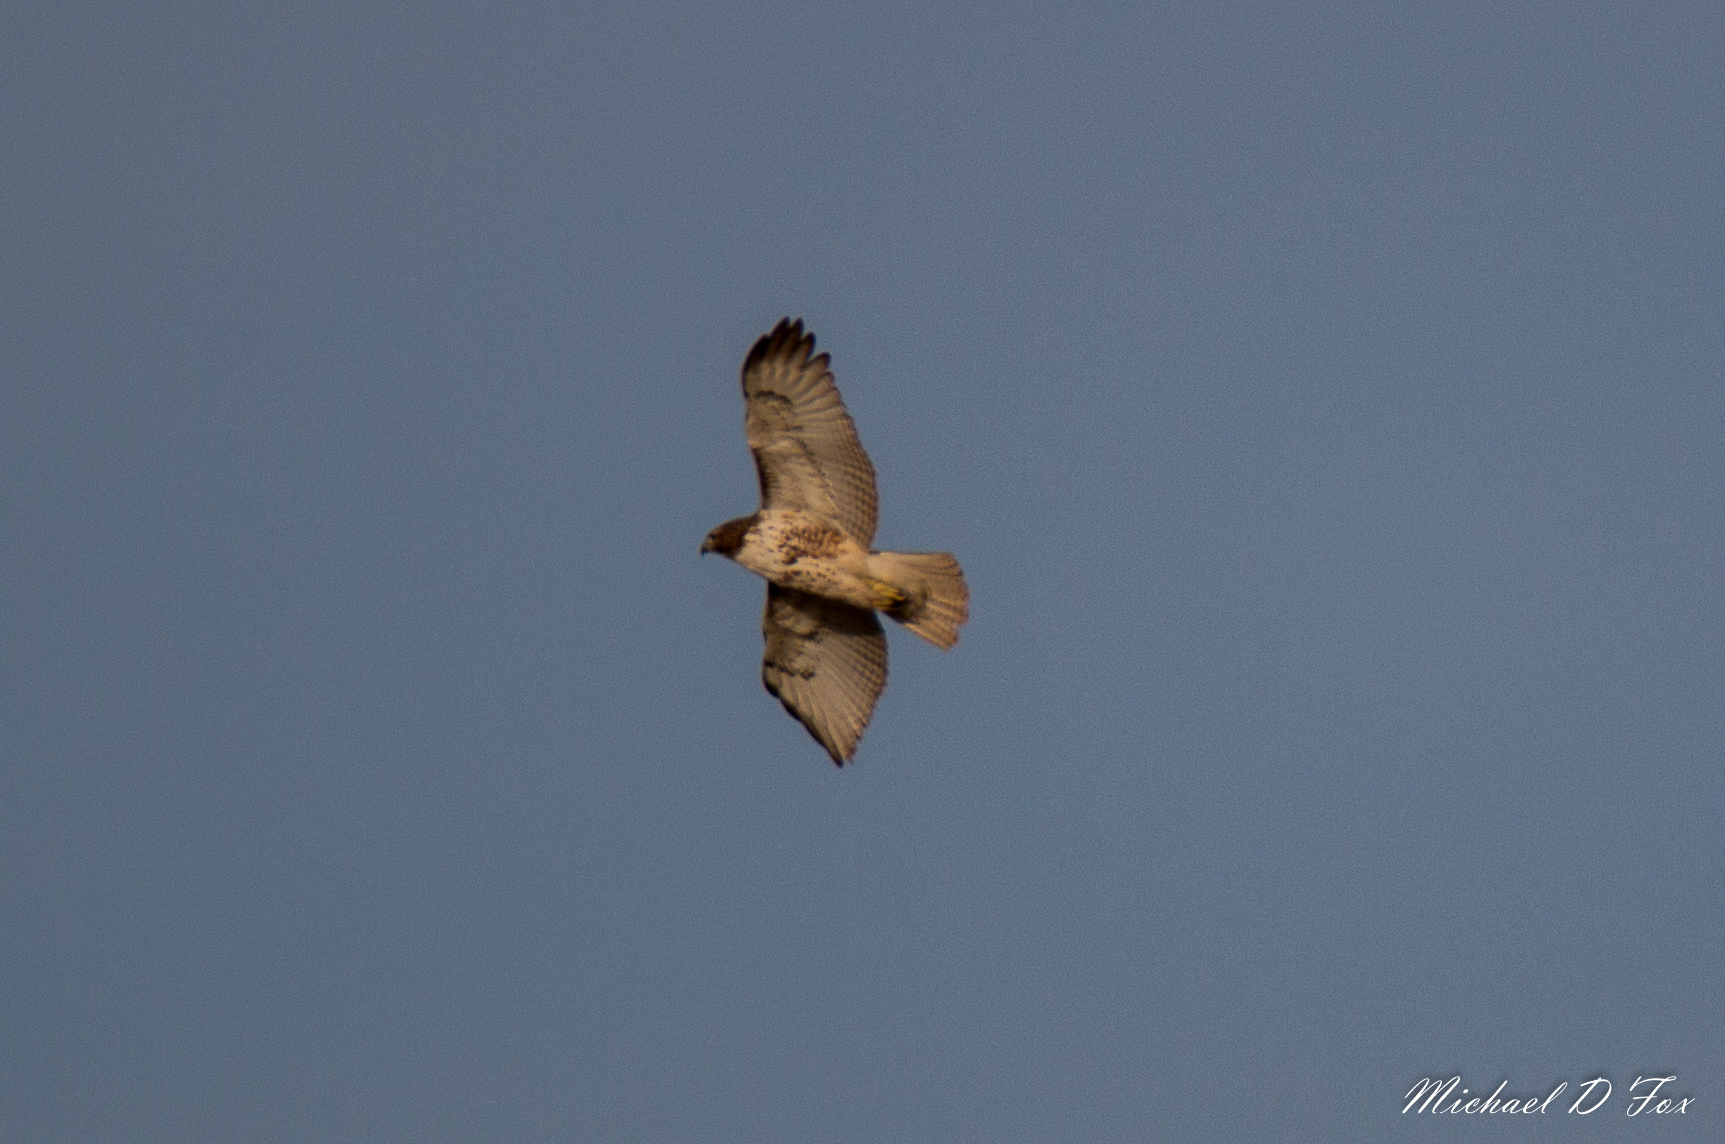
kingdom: Animalia
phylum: Chordata
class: Aves
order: Accipitriformes
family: Accipitridae
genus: Buteo
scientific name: Buteo jamaicensis
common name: Red-tailed hawk
